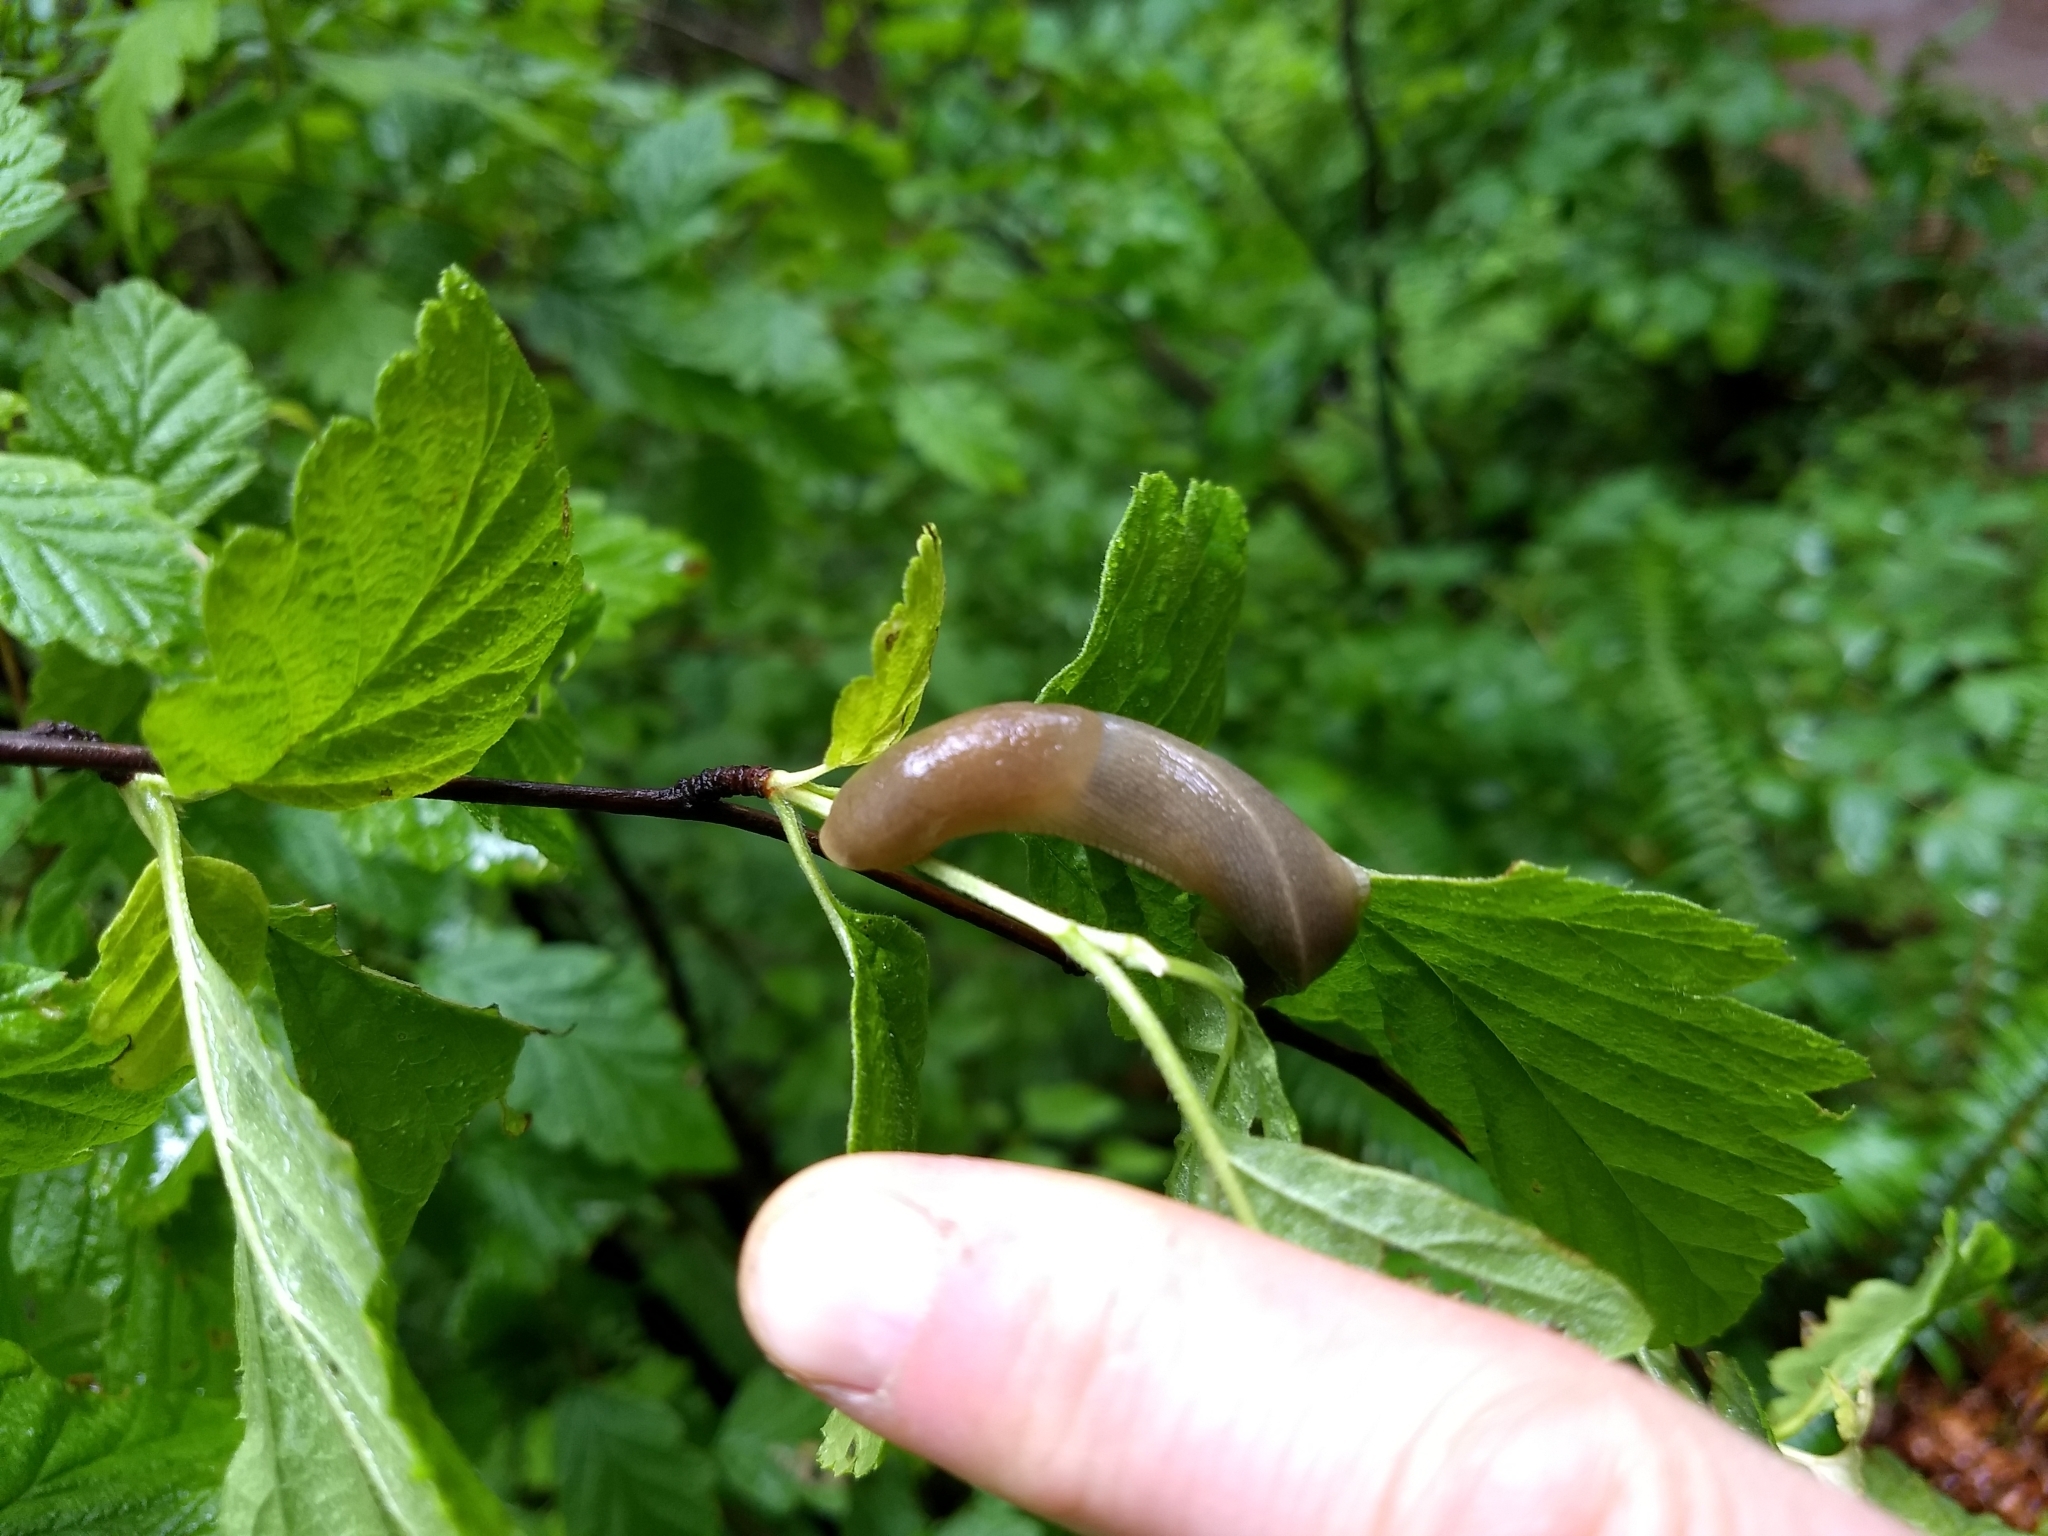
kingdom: Animalia
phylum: Mollusca
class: Gastropoda
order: Stylommatophora
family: Ariolimacidae
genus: Ariolimax
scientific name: Ariolimax columbianus
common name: Pacific banana slug
